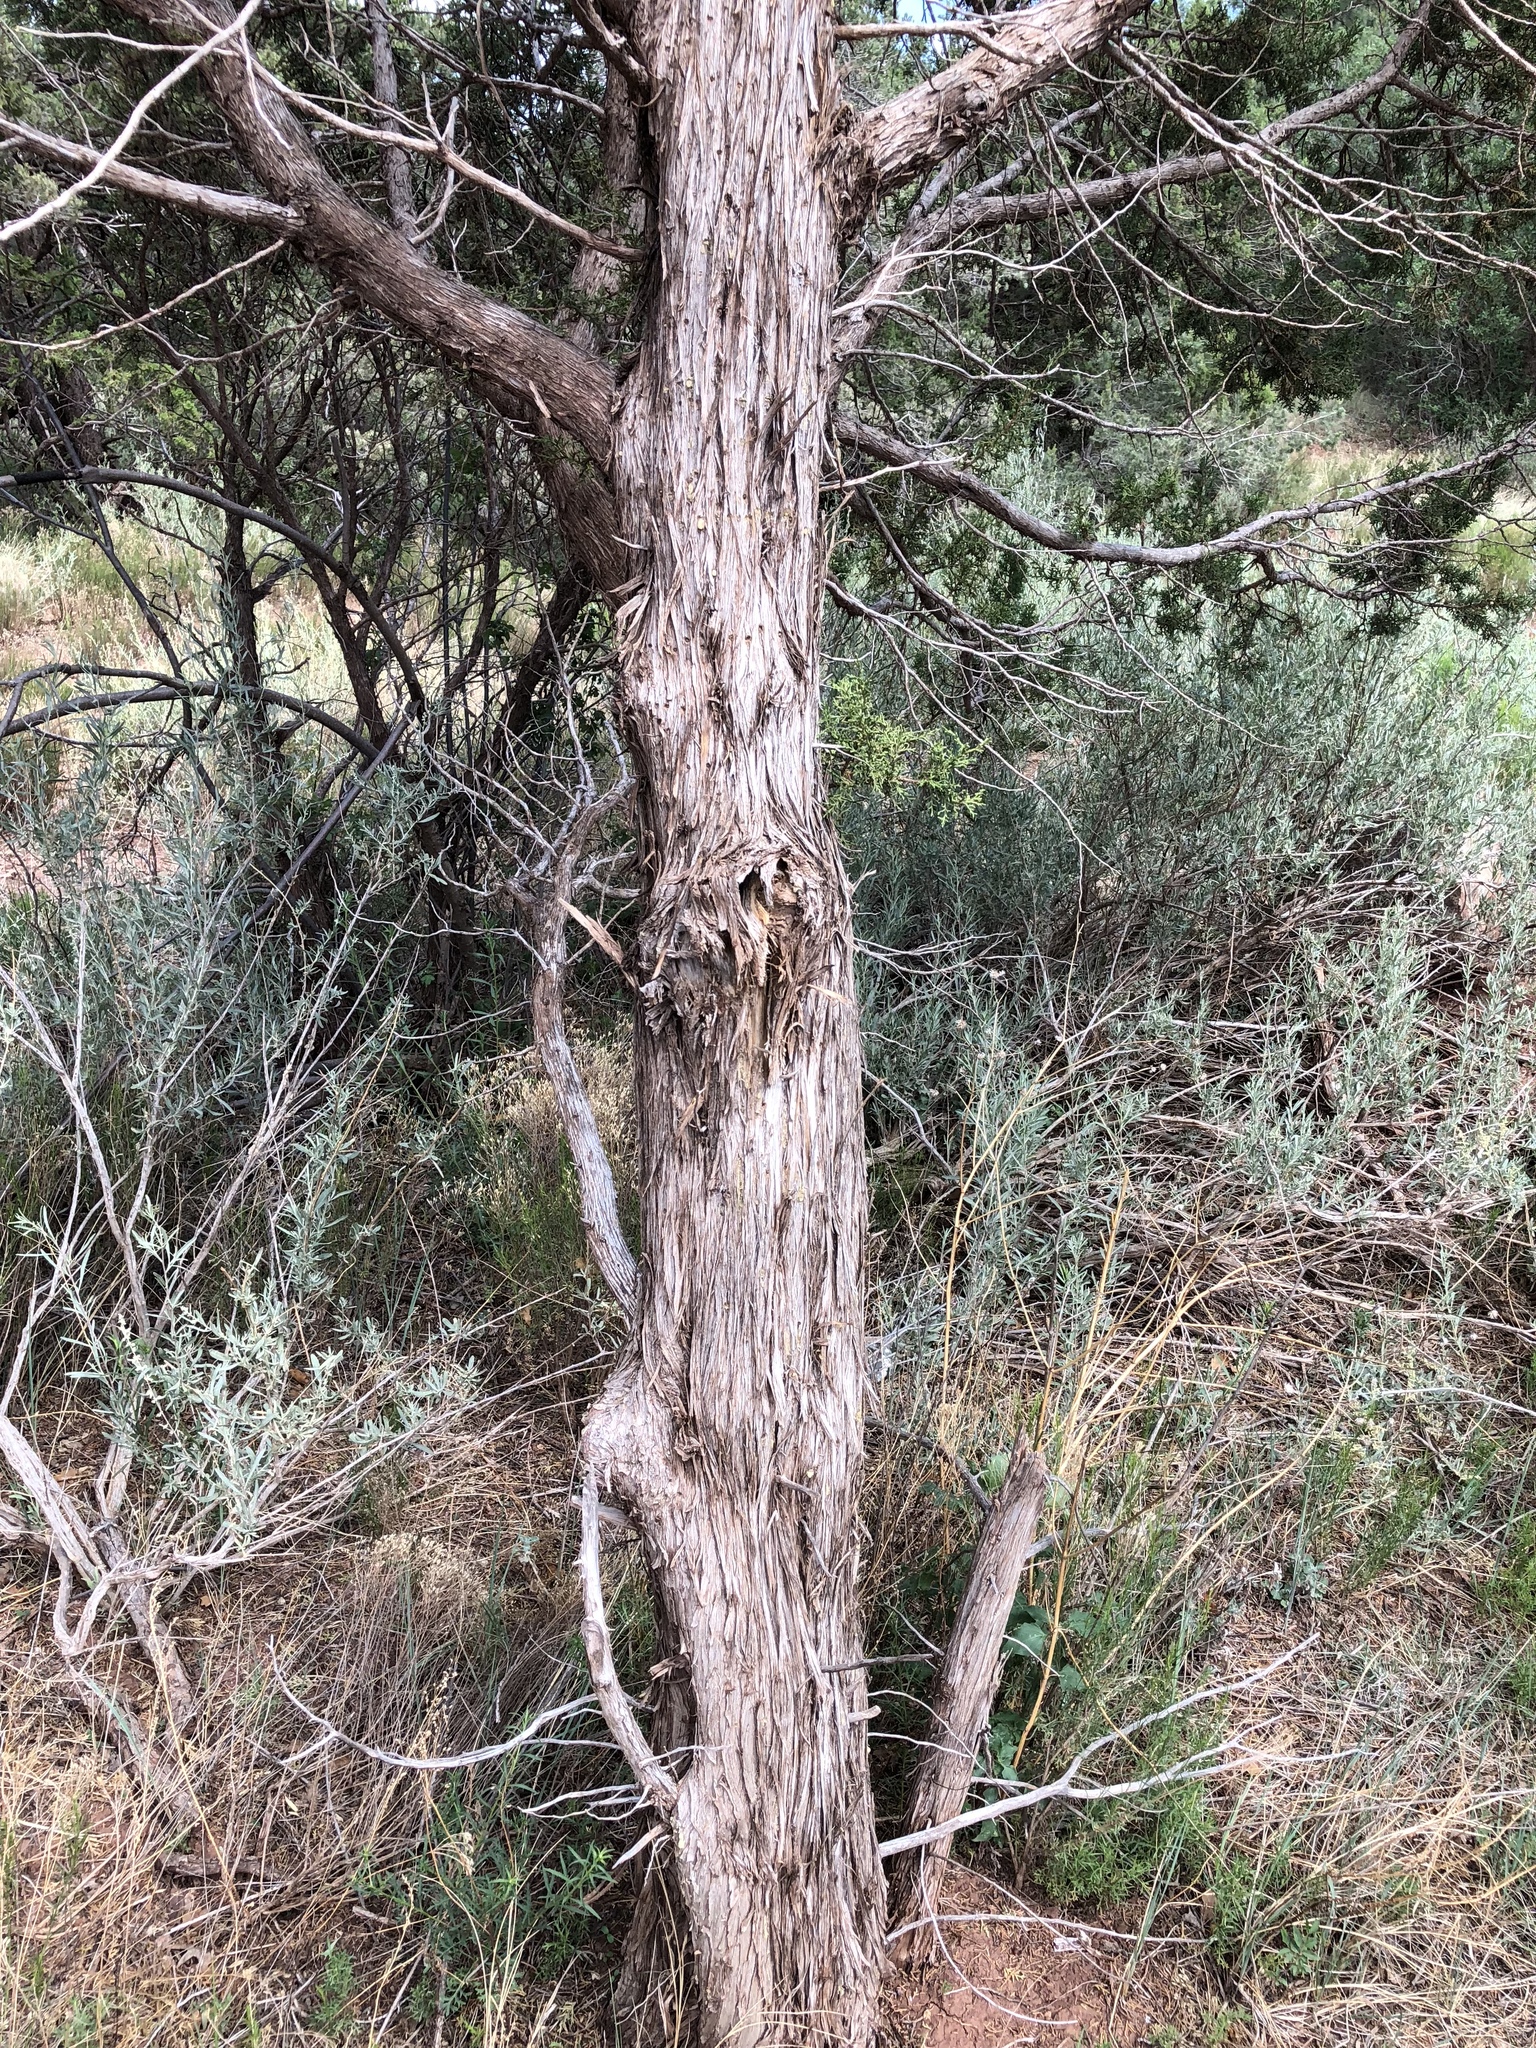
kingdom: Plantae
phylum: Tracheophyta
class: Pinopsida
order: Pinales
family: Cupressaceae
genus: Juniperus
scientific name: Juniperus monosperma
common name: One-seed juniper
